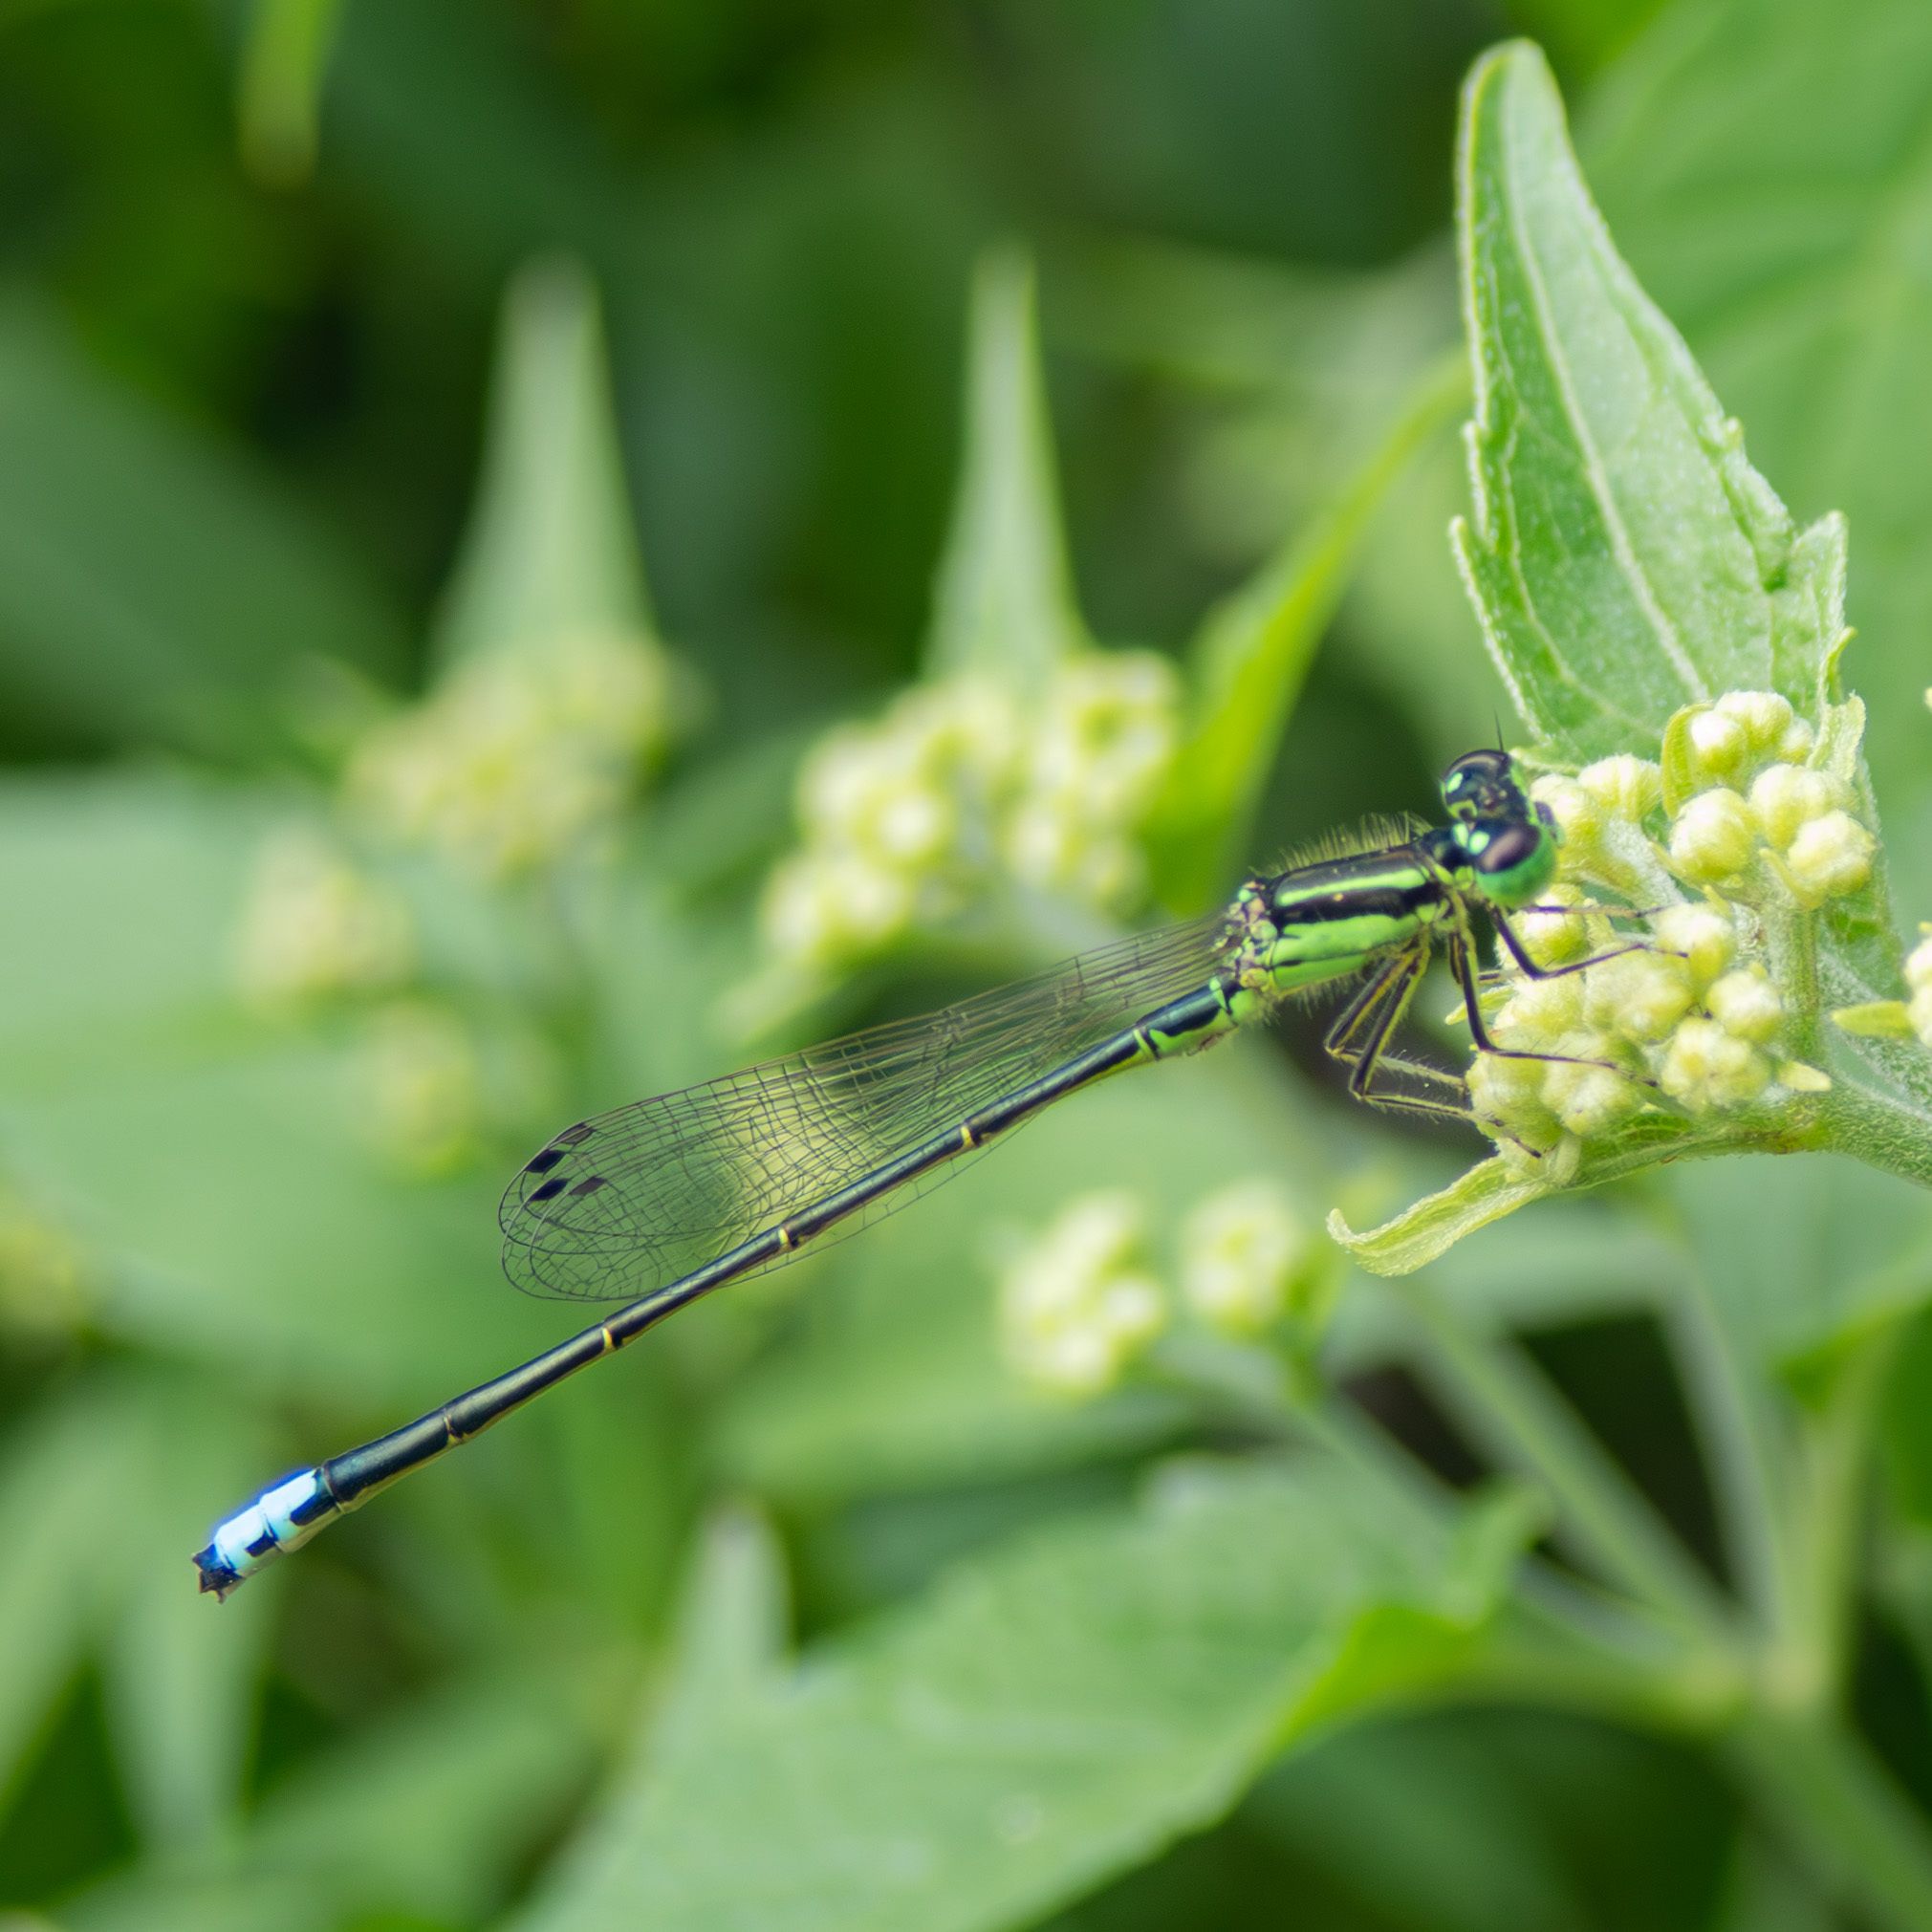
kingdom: Animalia
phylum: Arthropoda
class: Insecta
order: Odonata
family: Coenagrionidae
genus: Ischnura
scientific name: Ischnura verticalis
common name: Eastern forktail
